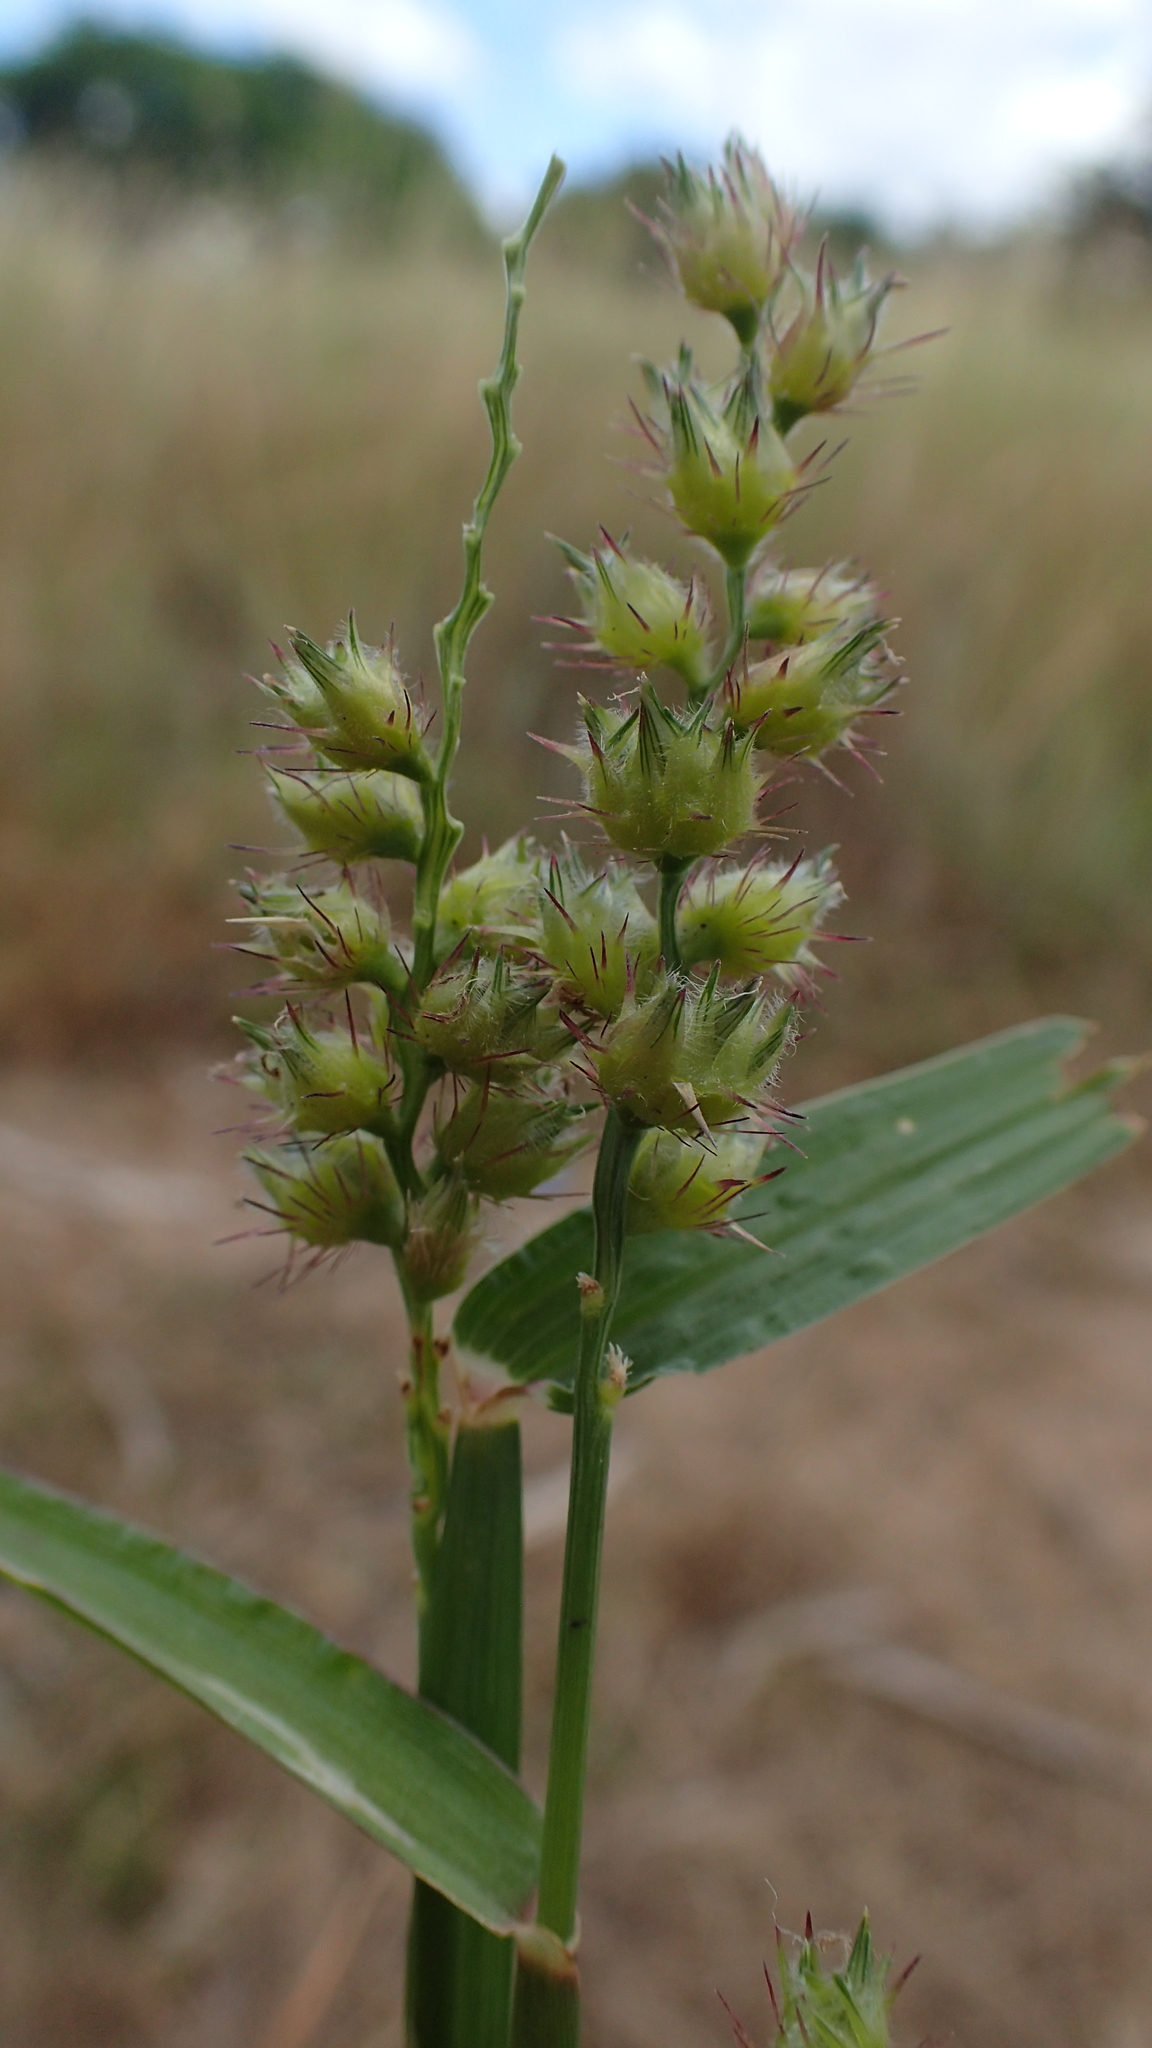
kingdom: Plantae
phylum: Tracheophyta
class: Liliopsida
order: Poales
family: Poaceae
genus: Cenchrus
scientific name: Cenchrus echinatus
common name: Southern sandbur
